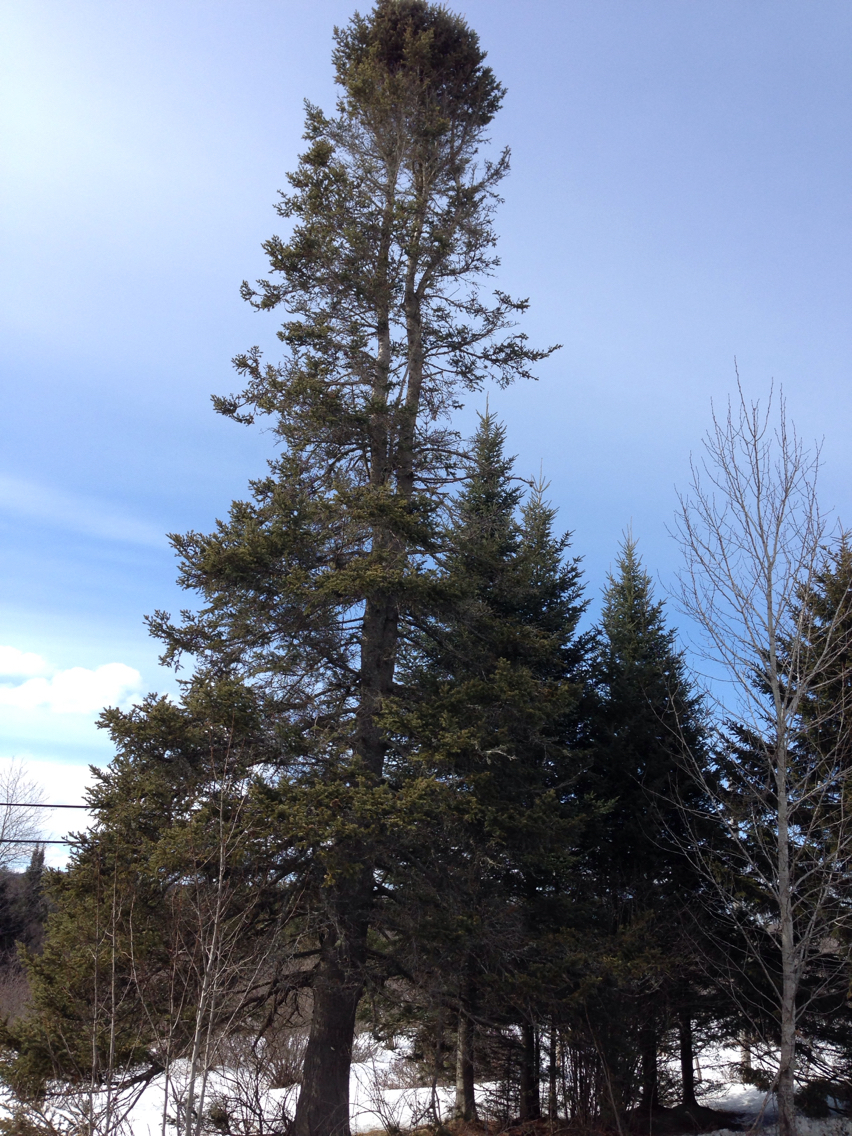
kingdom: Plantae
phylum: Tracheophyta
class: Pinopsida
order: Pinales
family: Pinaceae
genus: Abies
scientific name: Abies balsamea
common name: Balsam fir
